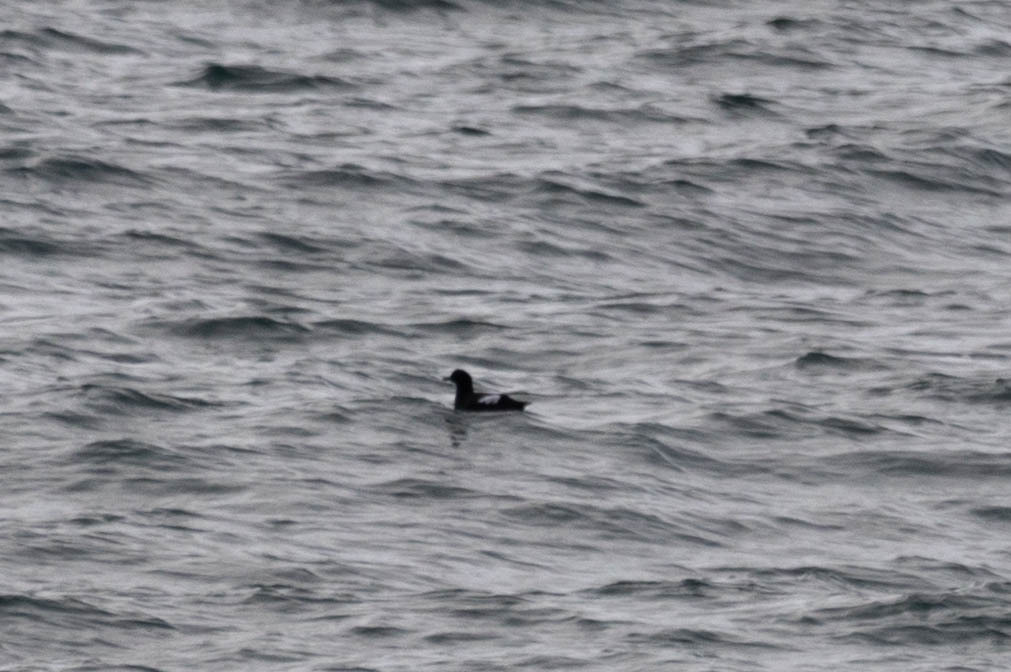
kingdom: Animalia
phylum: Chordata
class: Aves
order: Charadriiformes
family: Alcidae
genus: Cepphus
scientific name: Cepphus columba
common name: Pigeon guillemot
